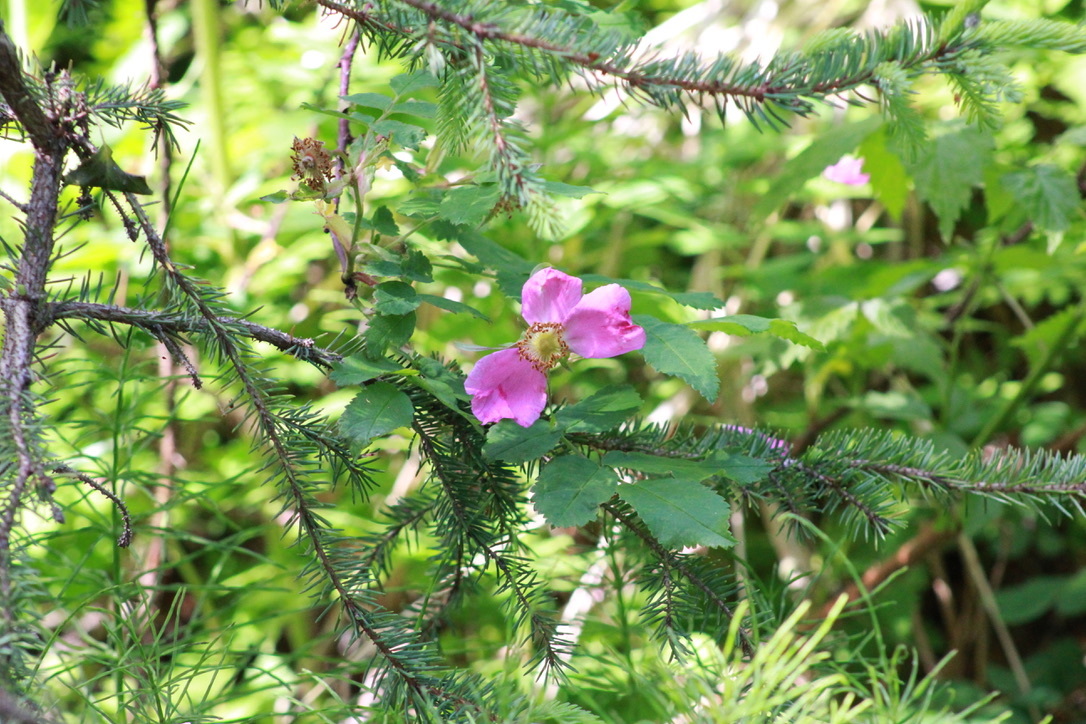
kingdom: Plantae
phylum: Tracheophyta
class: Magnoliopsida
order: Rosales
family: Rosaceae
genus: Rosa
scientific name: Rosa acicularis
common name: Prickly rose
